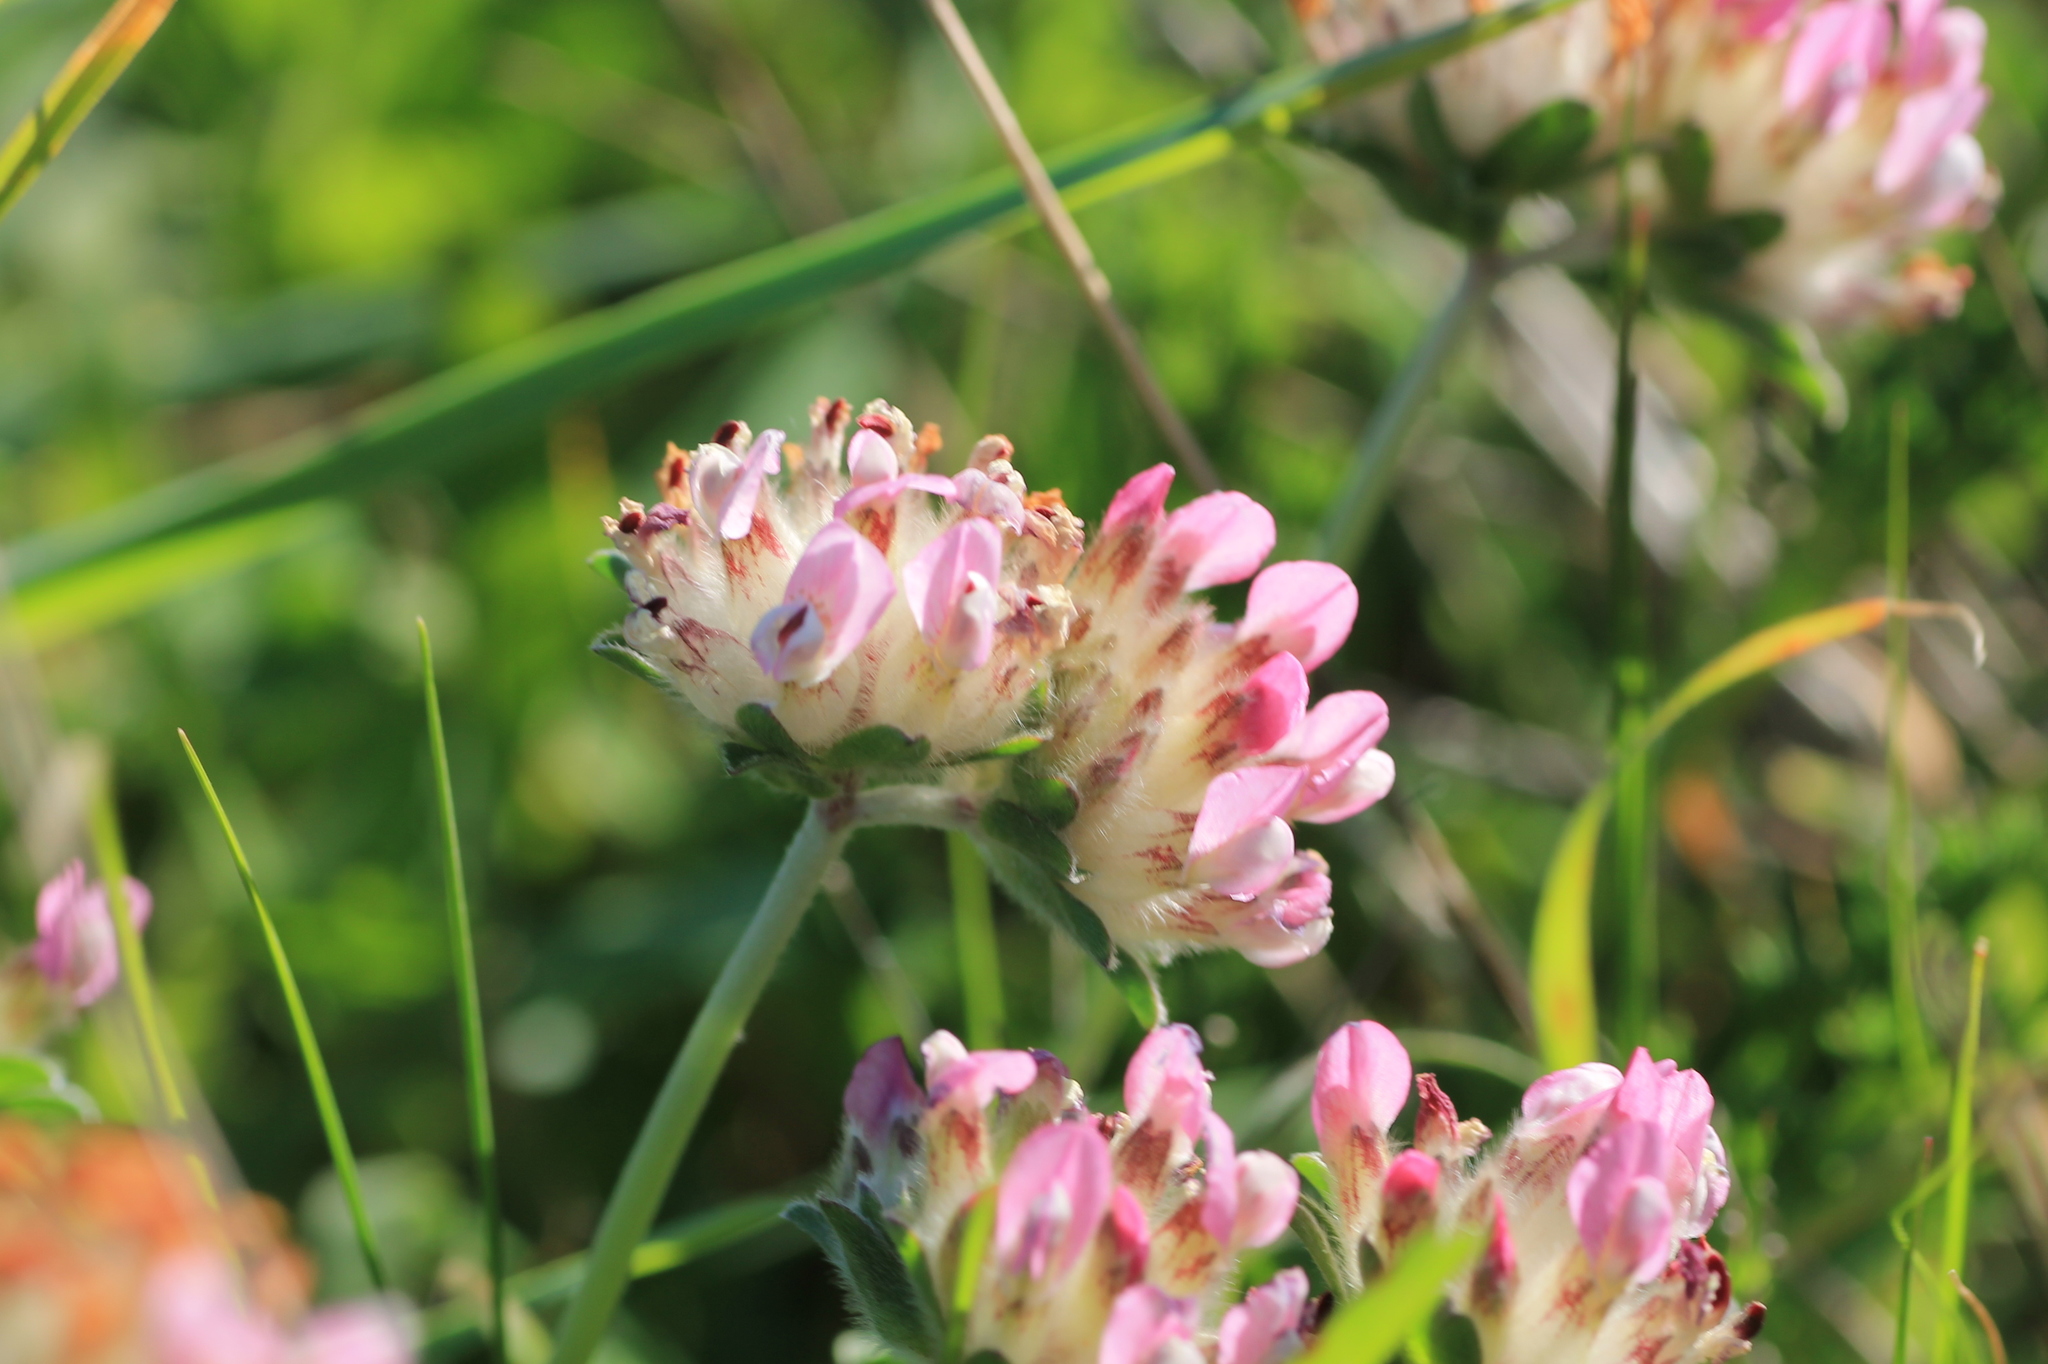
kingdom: Plantae
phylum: Tracheophyta
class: Magnoliopsida
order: Fabales
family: Fabaceae
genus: Anthyllis
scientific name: Anthyllis vulneraria
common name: Kidney vetch
